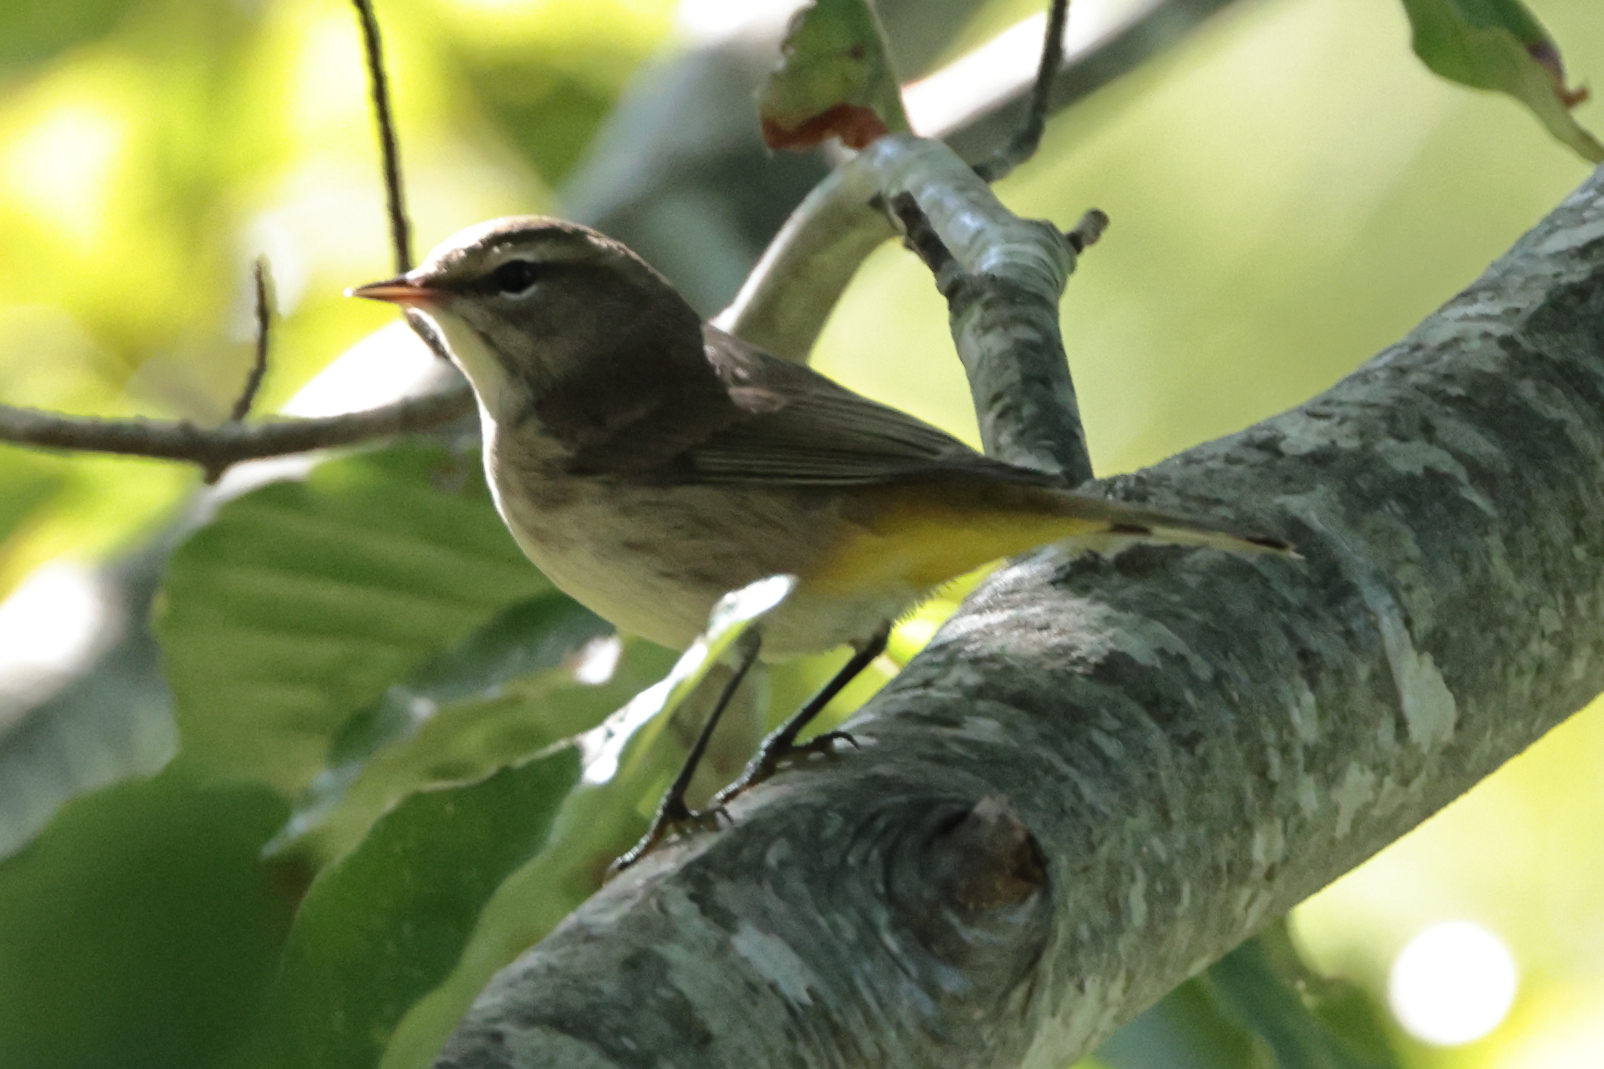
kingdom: Animalia
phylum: Chordata
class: Aves
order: Passeriformes
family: Parulidae
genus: Setophaga
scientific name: Setophaga palmarum
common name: Palm warbler
